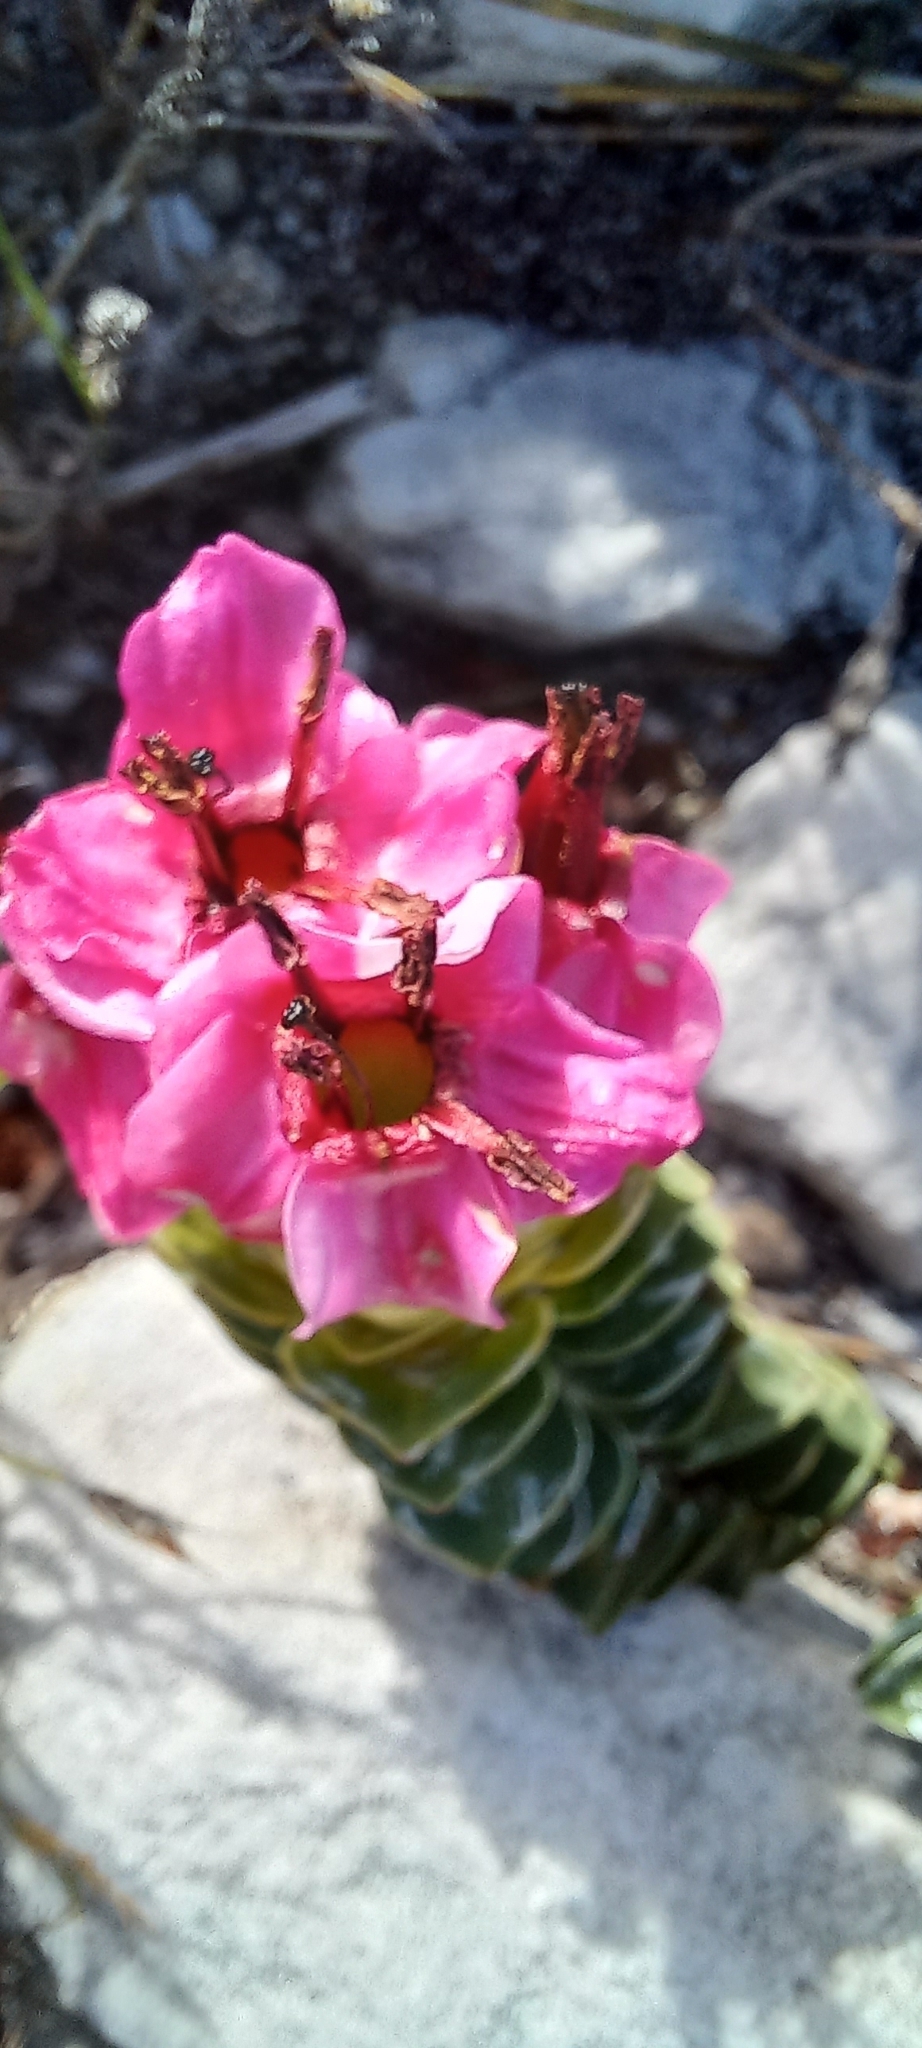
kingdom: Plantae
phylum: Tracheophyta
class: Magnoliopsida
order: Myrtales
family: Penaeaceae
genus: Saltera
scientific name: Saltera sarcocolla
